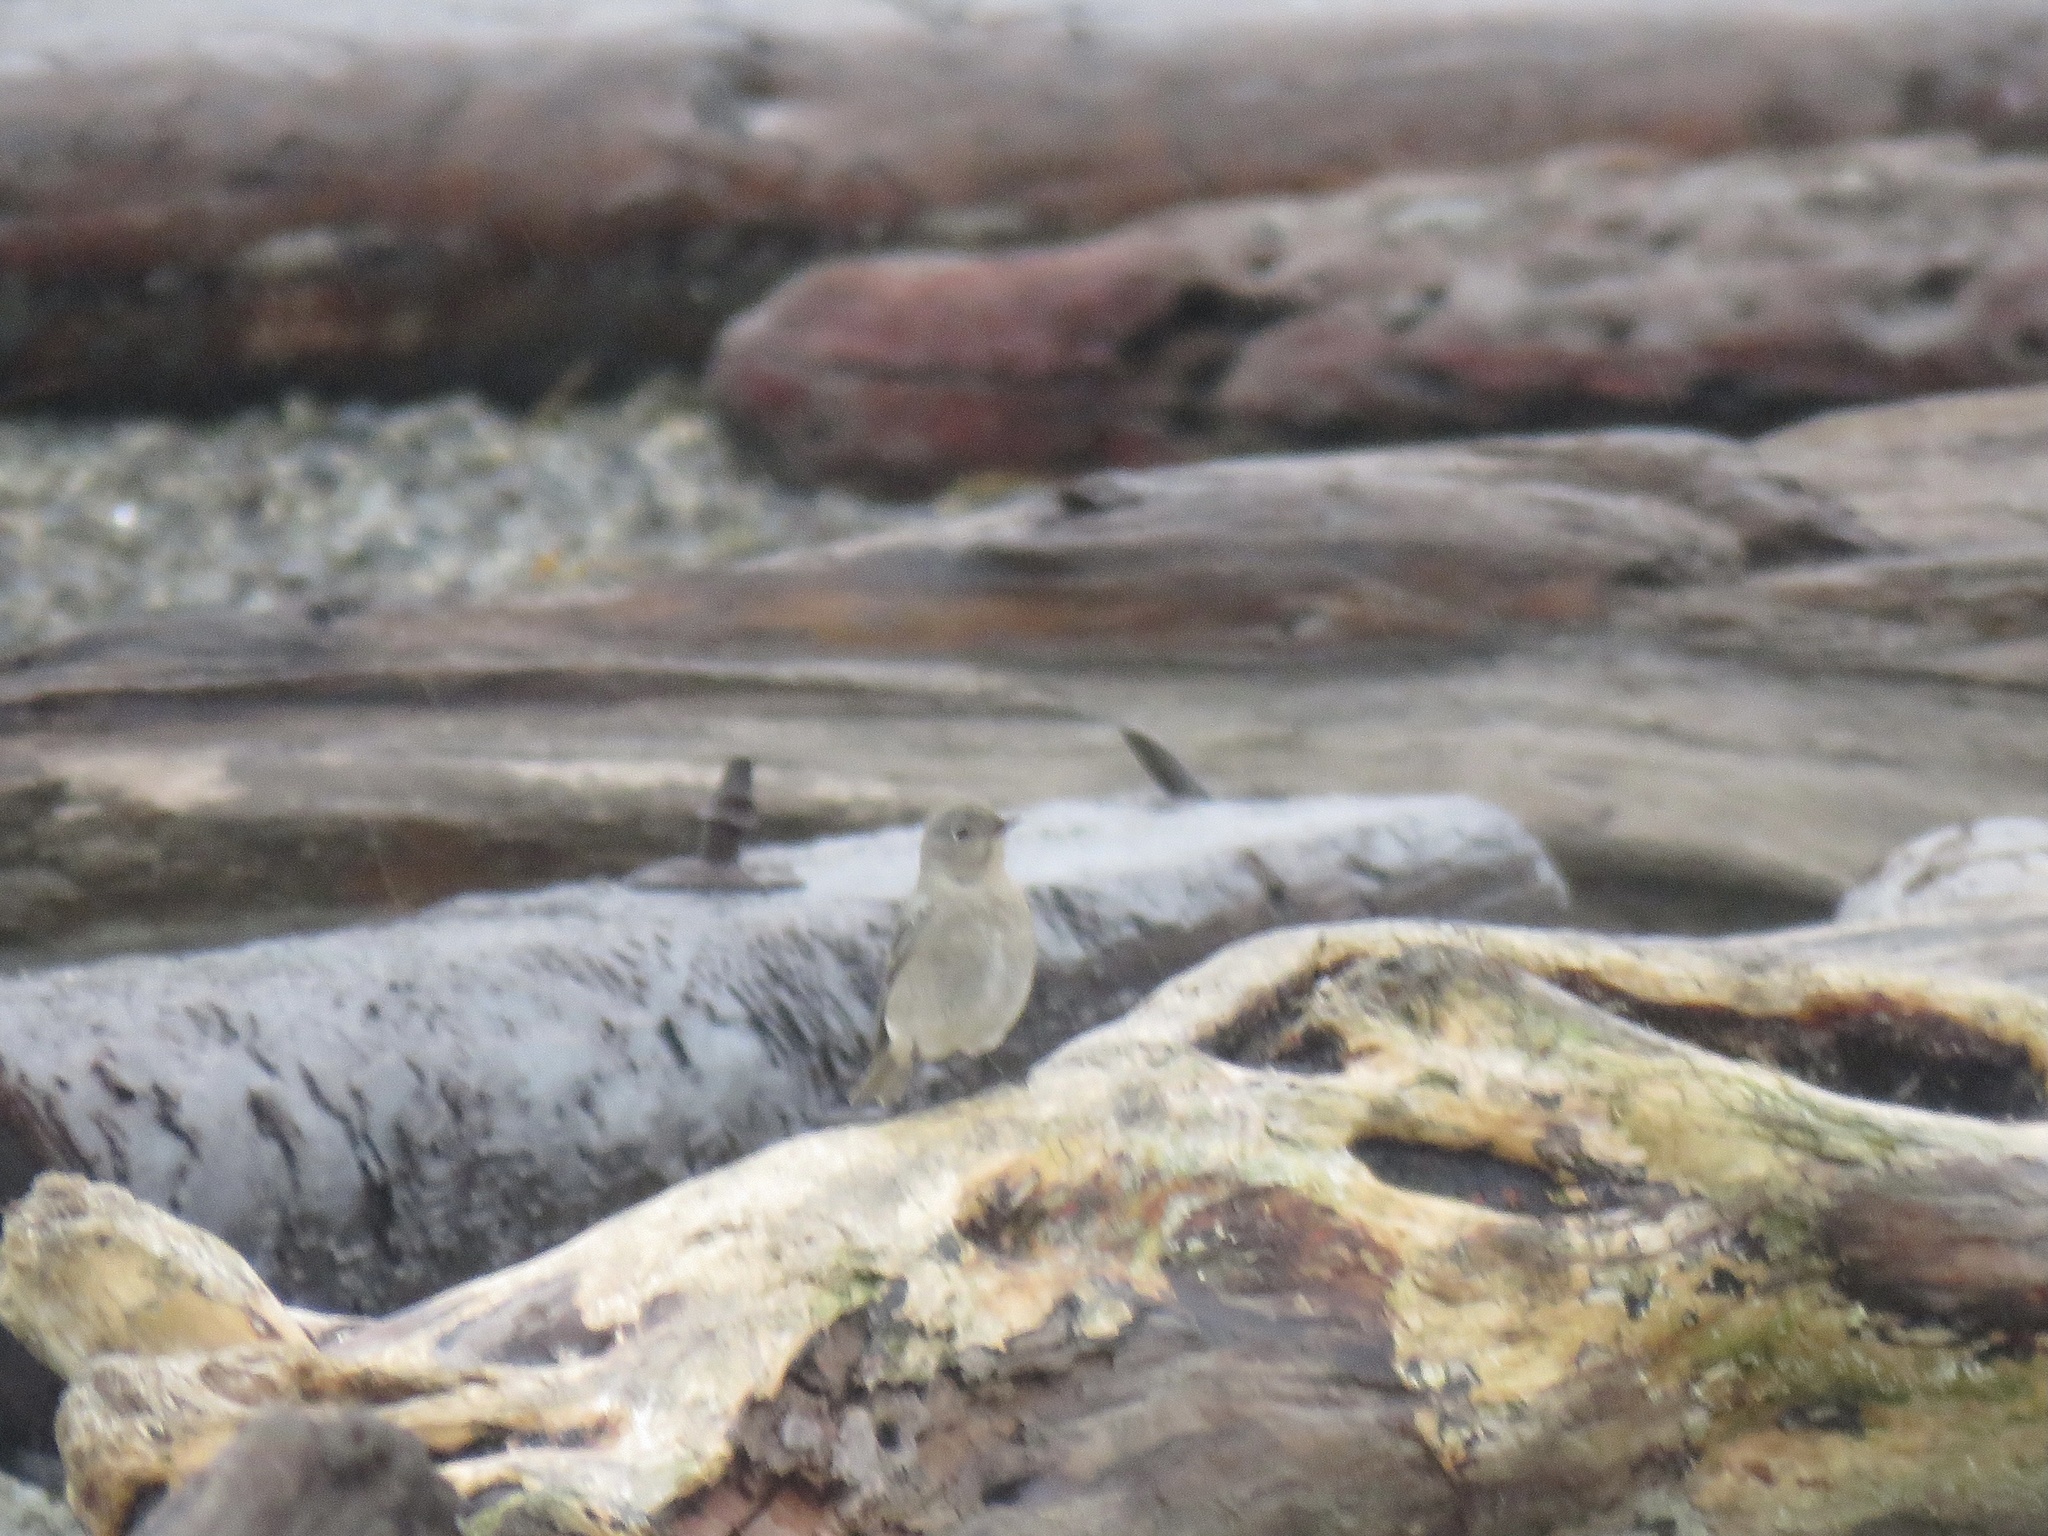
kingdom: Animalia
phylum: Chordata
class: Aves
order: Passeriformes
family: Turdidae
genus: Sialia
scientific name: Sialia currucoides
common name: Mountain bluebird
